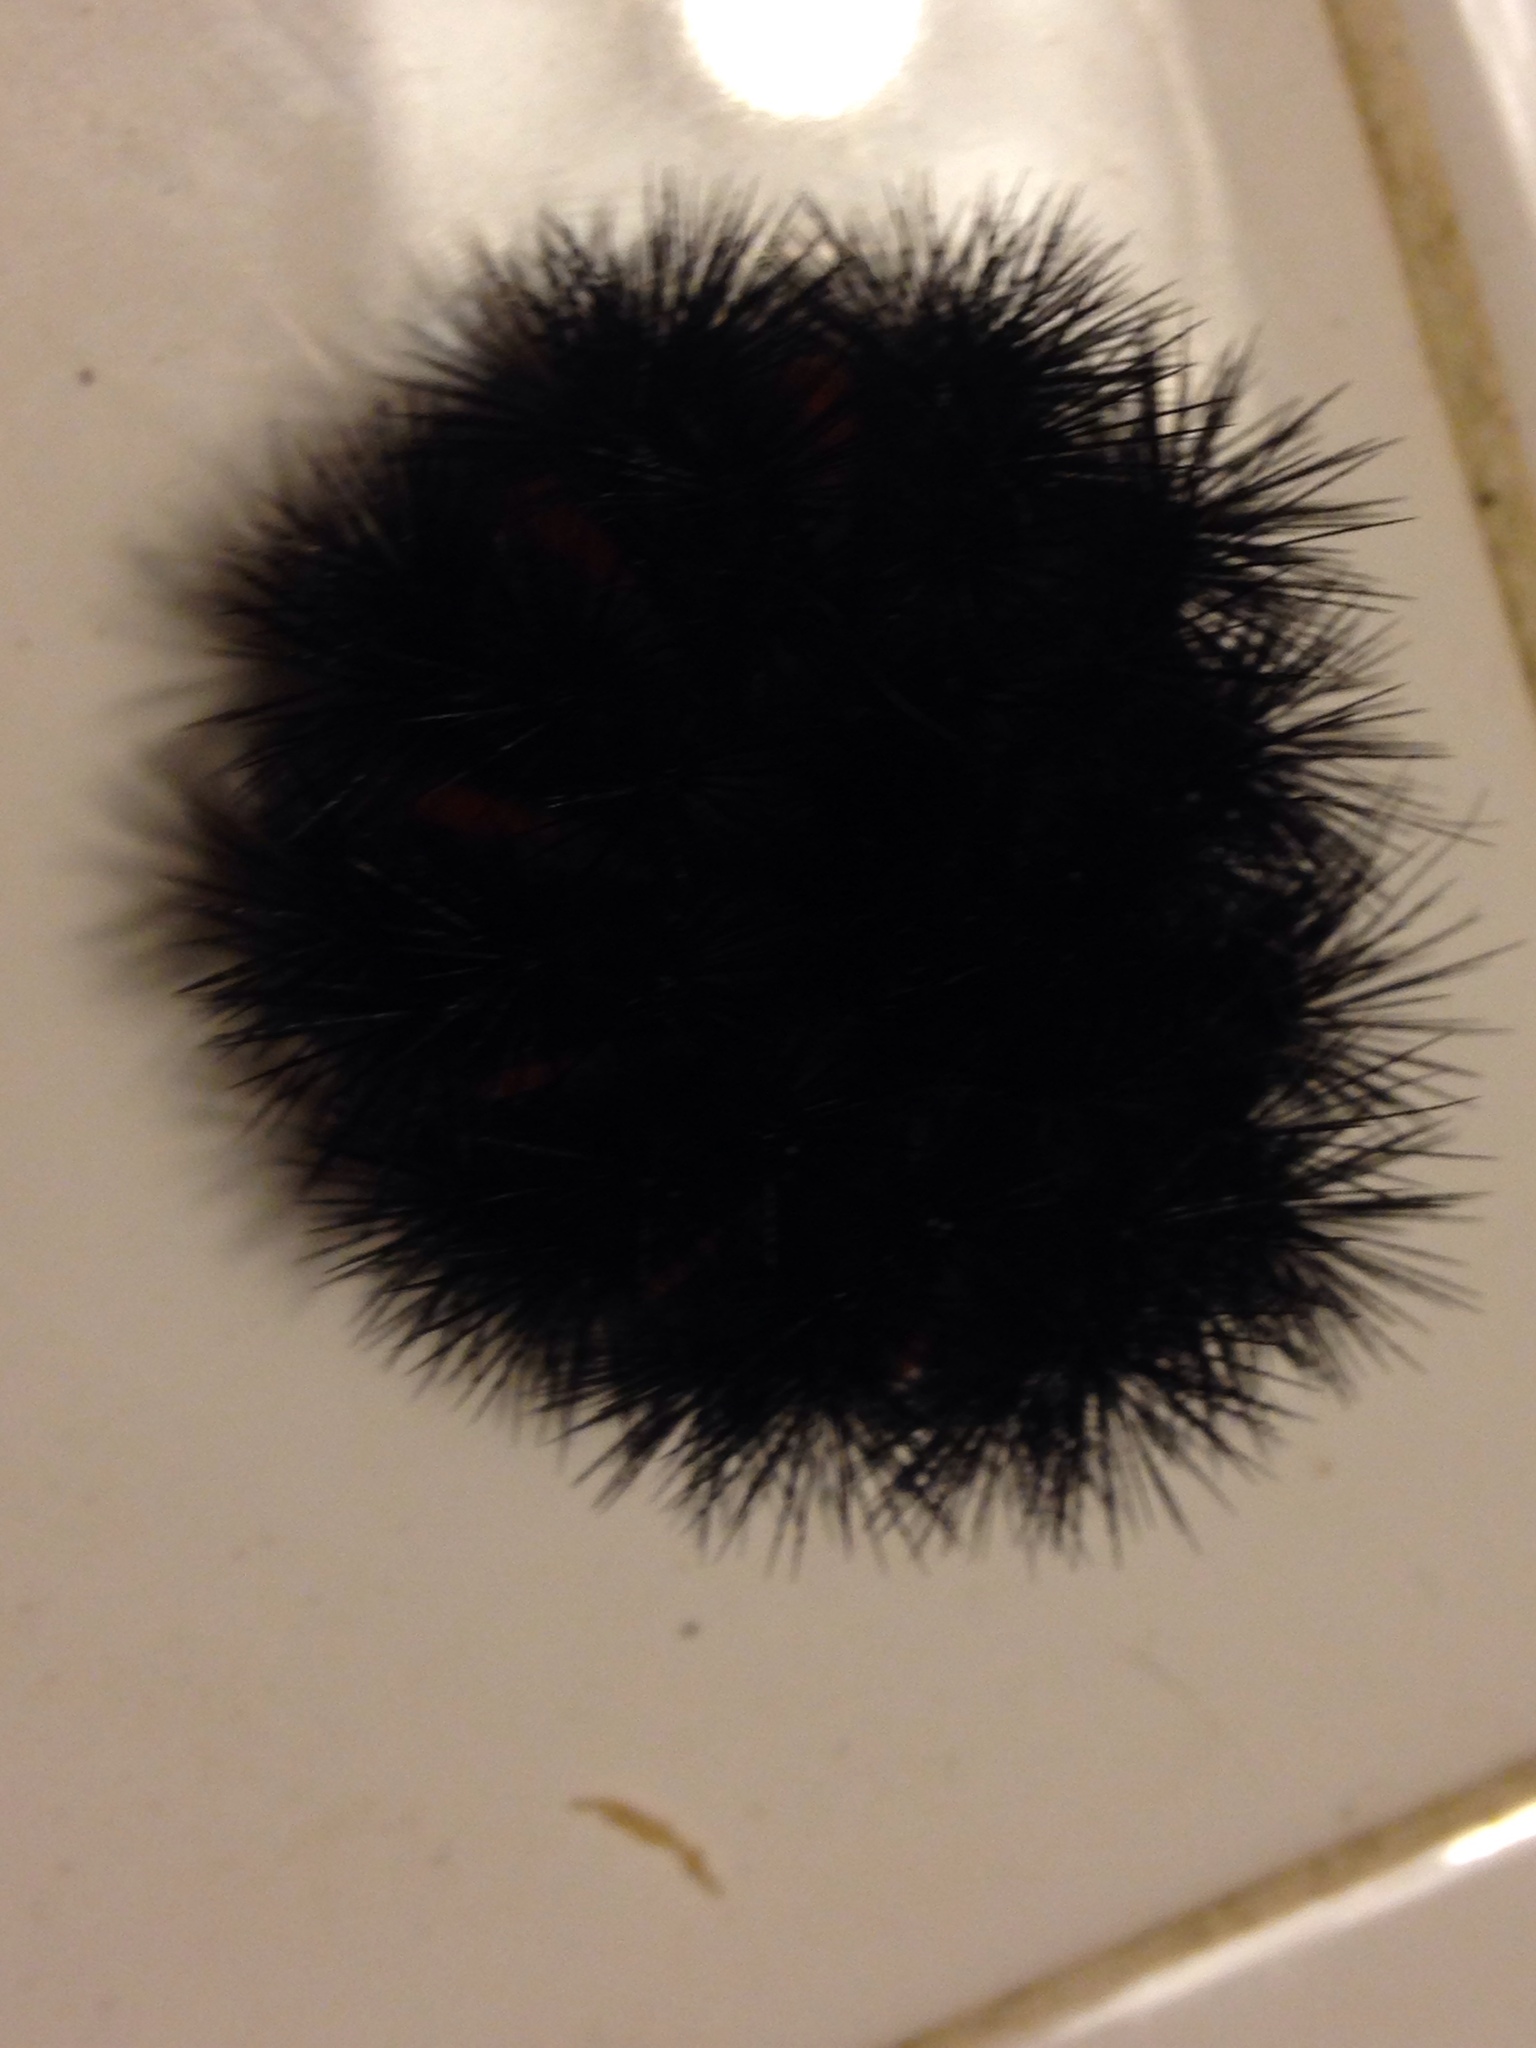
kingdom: Animalia
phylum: Arthropoda
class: Insecta
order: Lepidoptera
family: Erebidae
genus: Hypercompe
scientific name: Hypercompe scribonia
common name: Giant leopard moth
